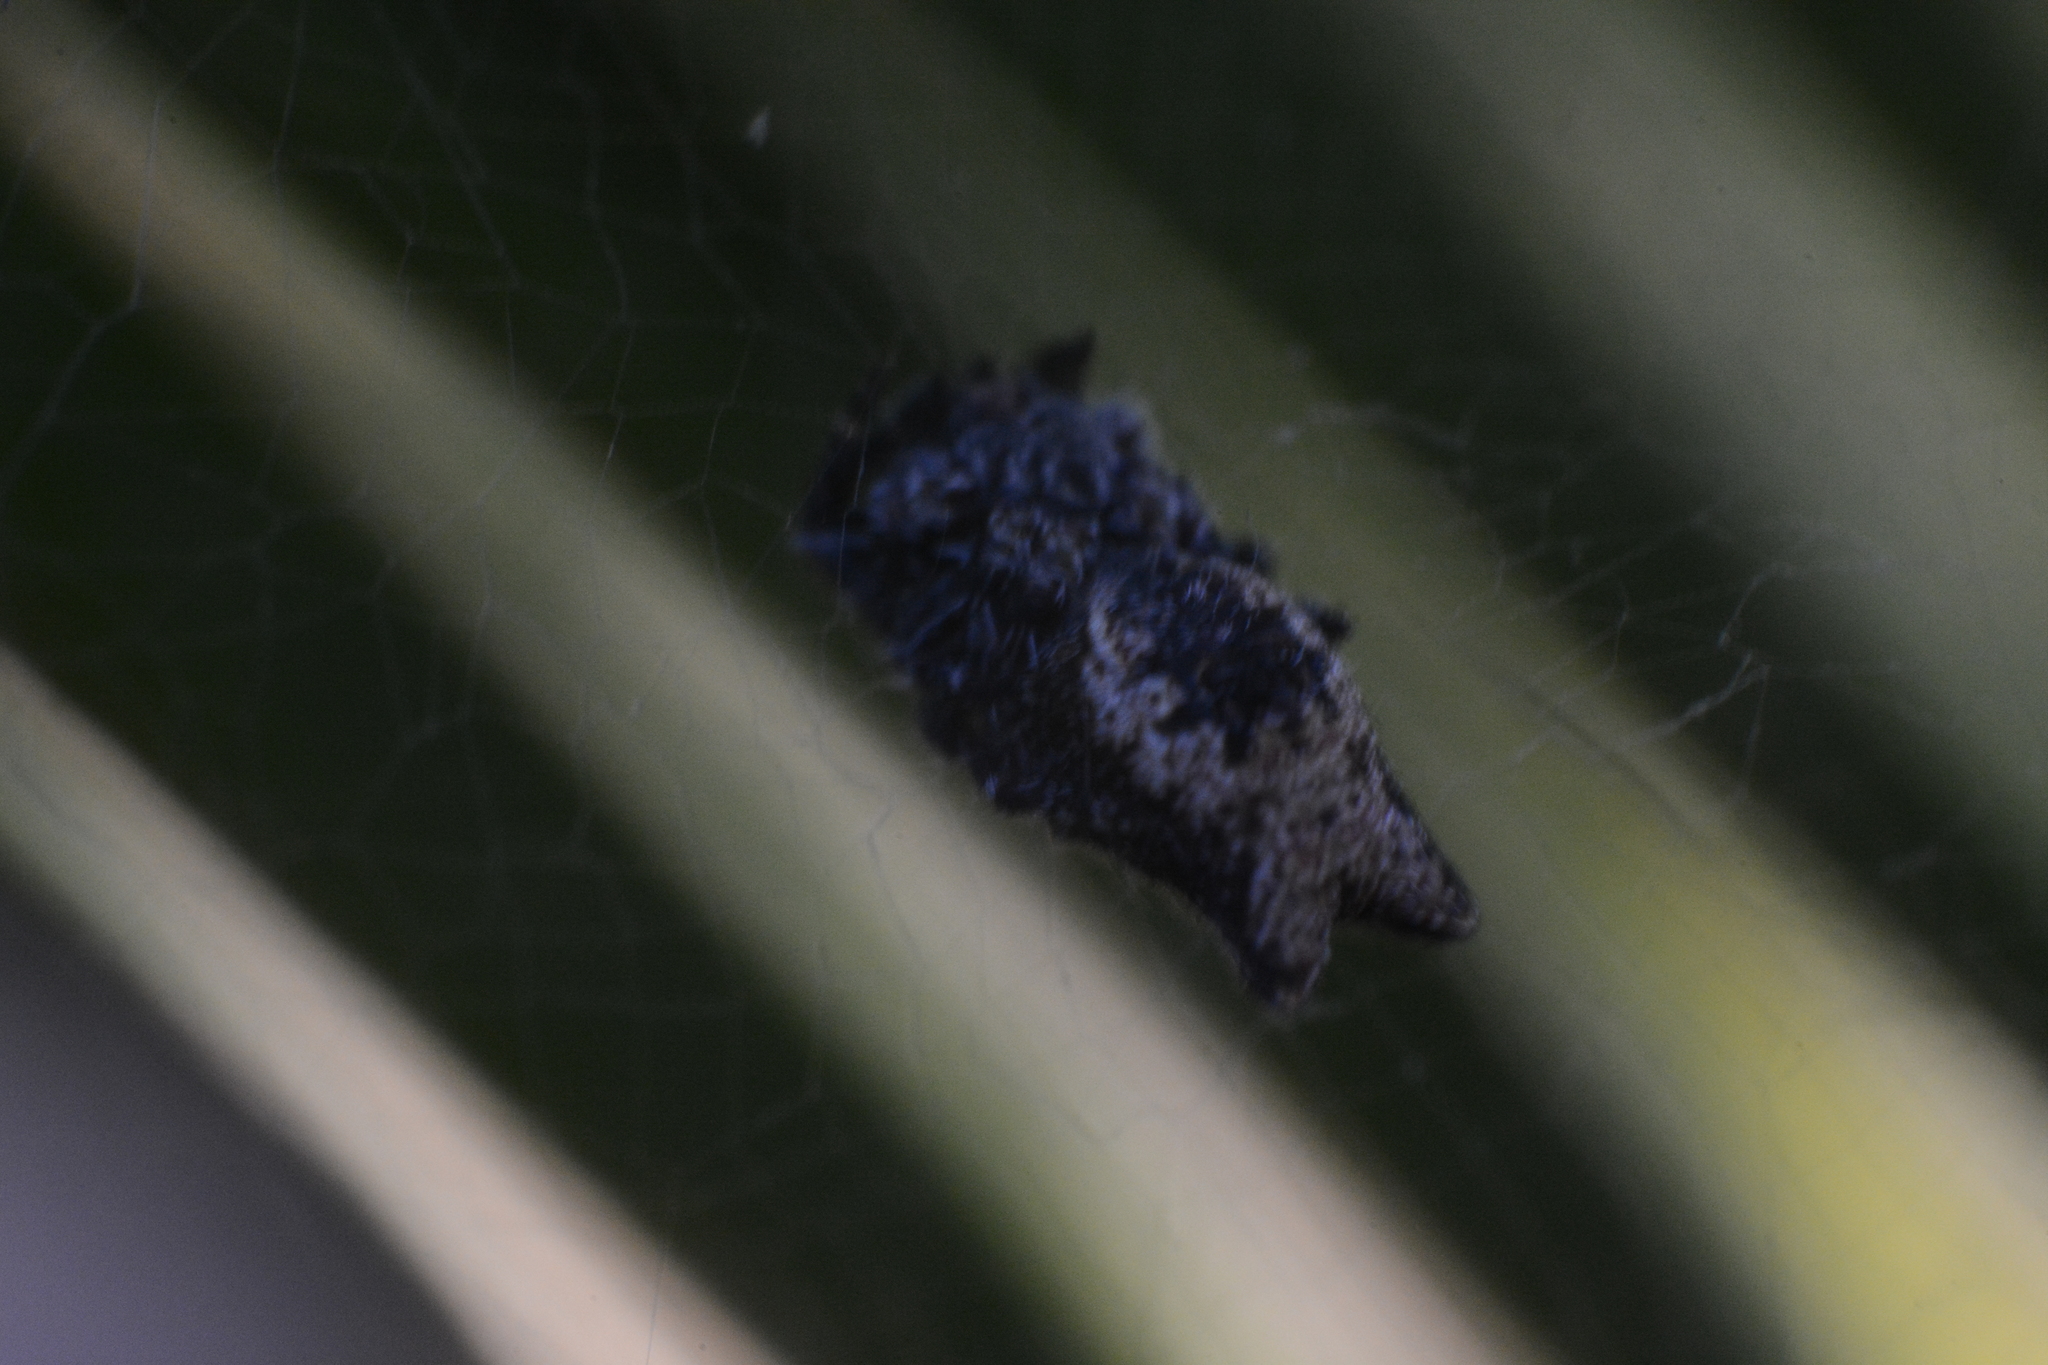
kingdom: Animalia
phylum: Arthropoda
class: Arachnida
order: Araneae
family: Araneidae
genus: Cyrtophora
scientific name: Cyrtophora citricola
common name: Orb weavers
